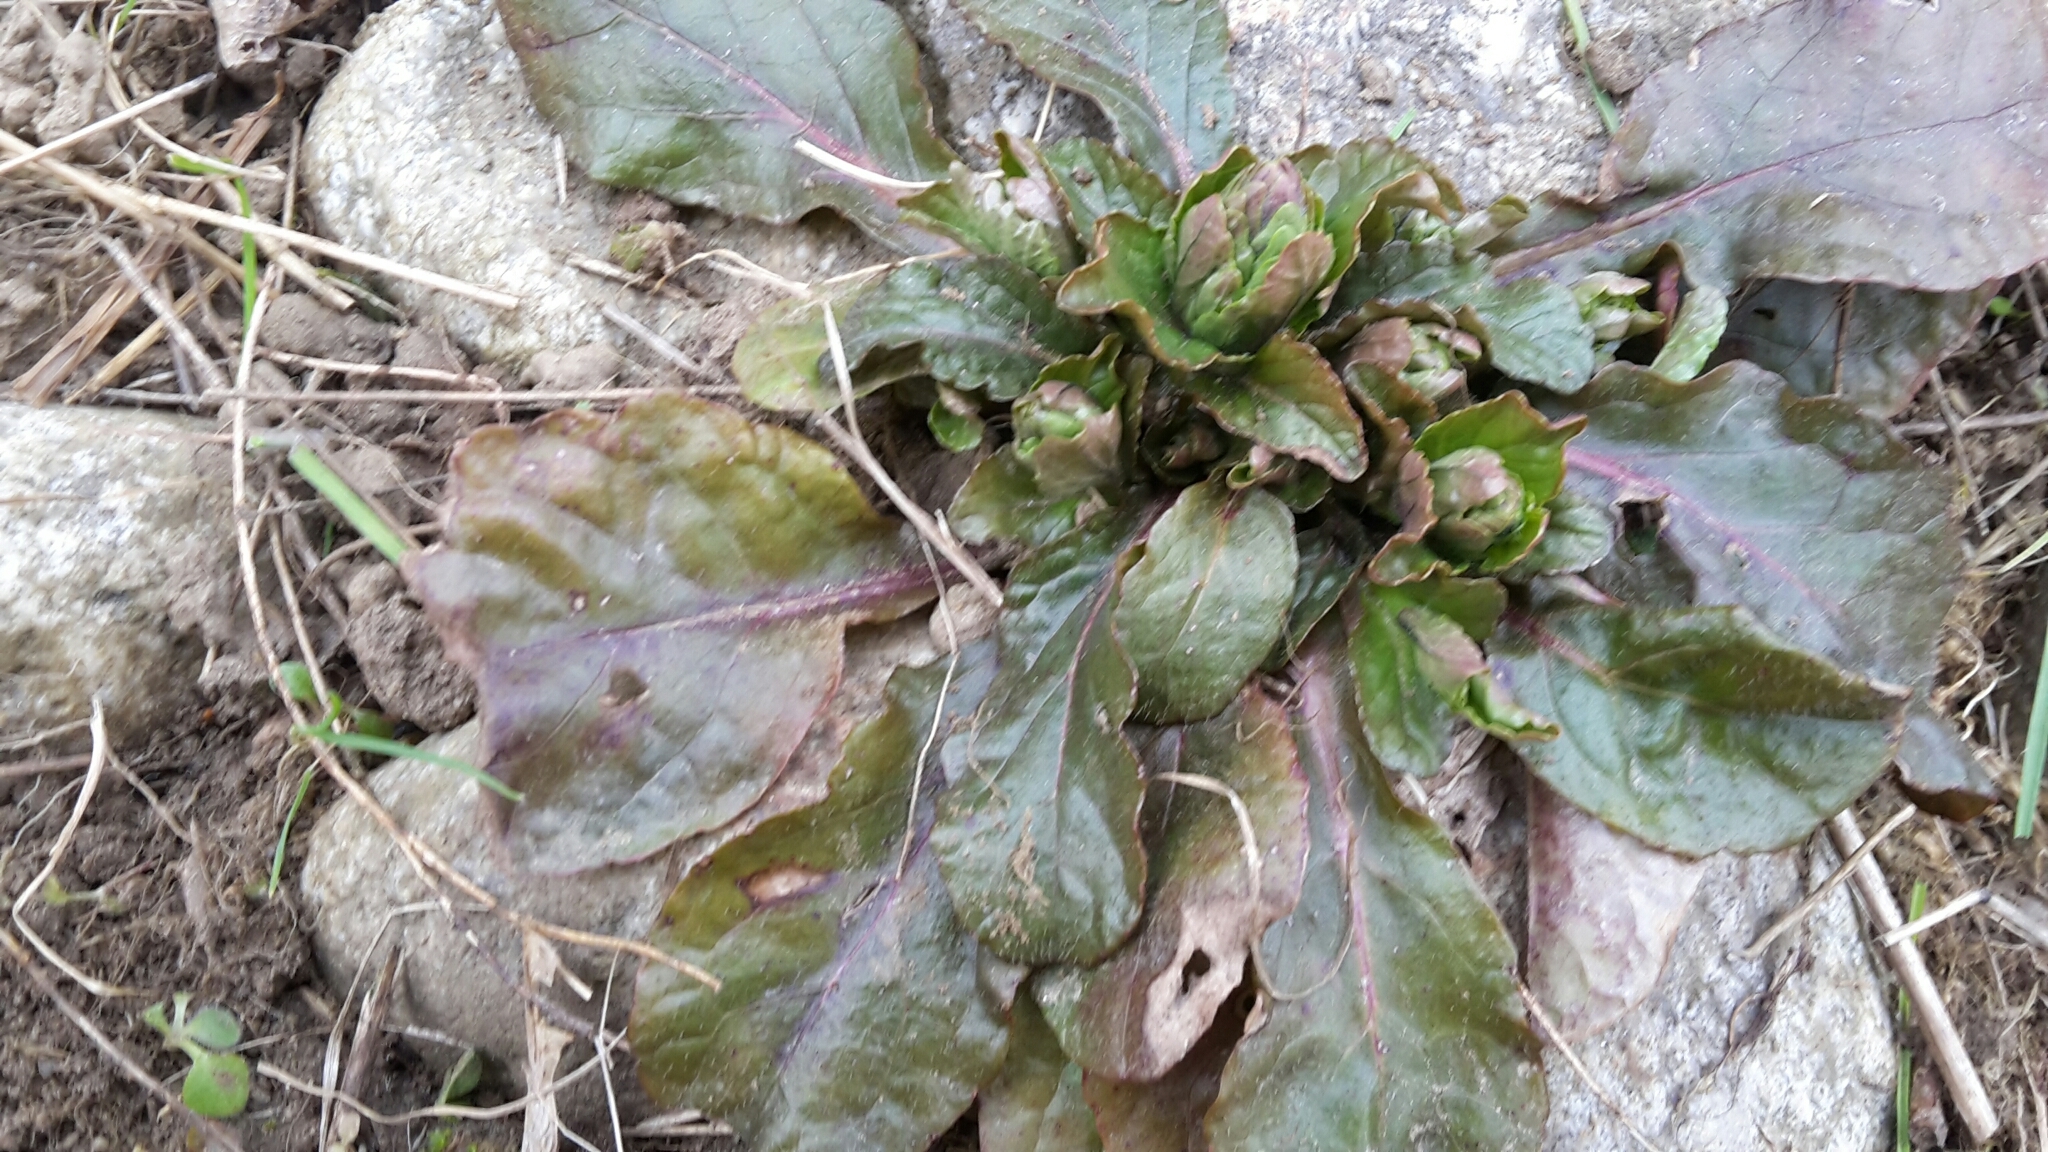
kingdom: Plantae
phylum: Tracheophyta
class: Magnoliopsida
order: Lamiales
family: Lamiaceae
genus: Ajuga
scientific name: Ajuga reptans
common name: Bugle
